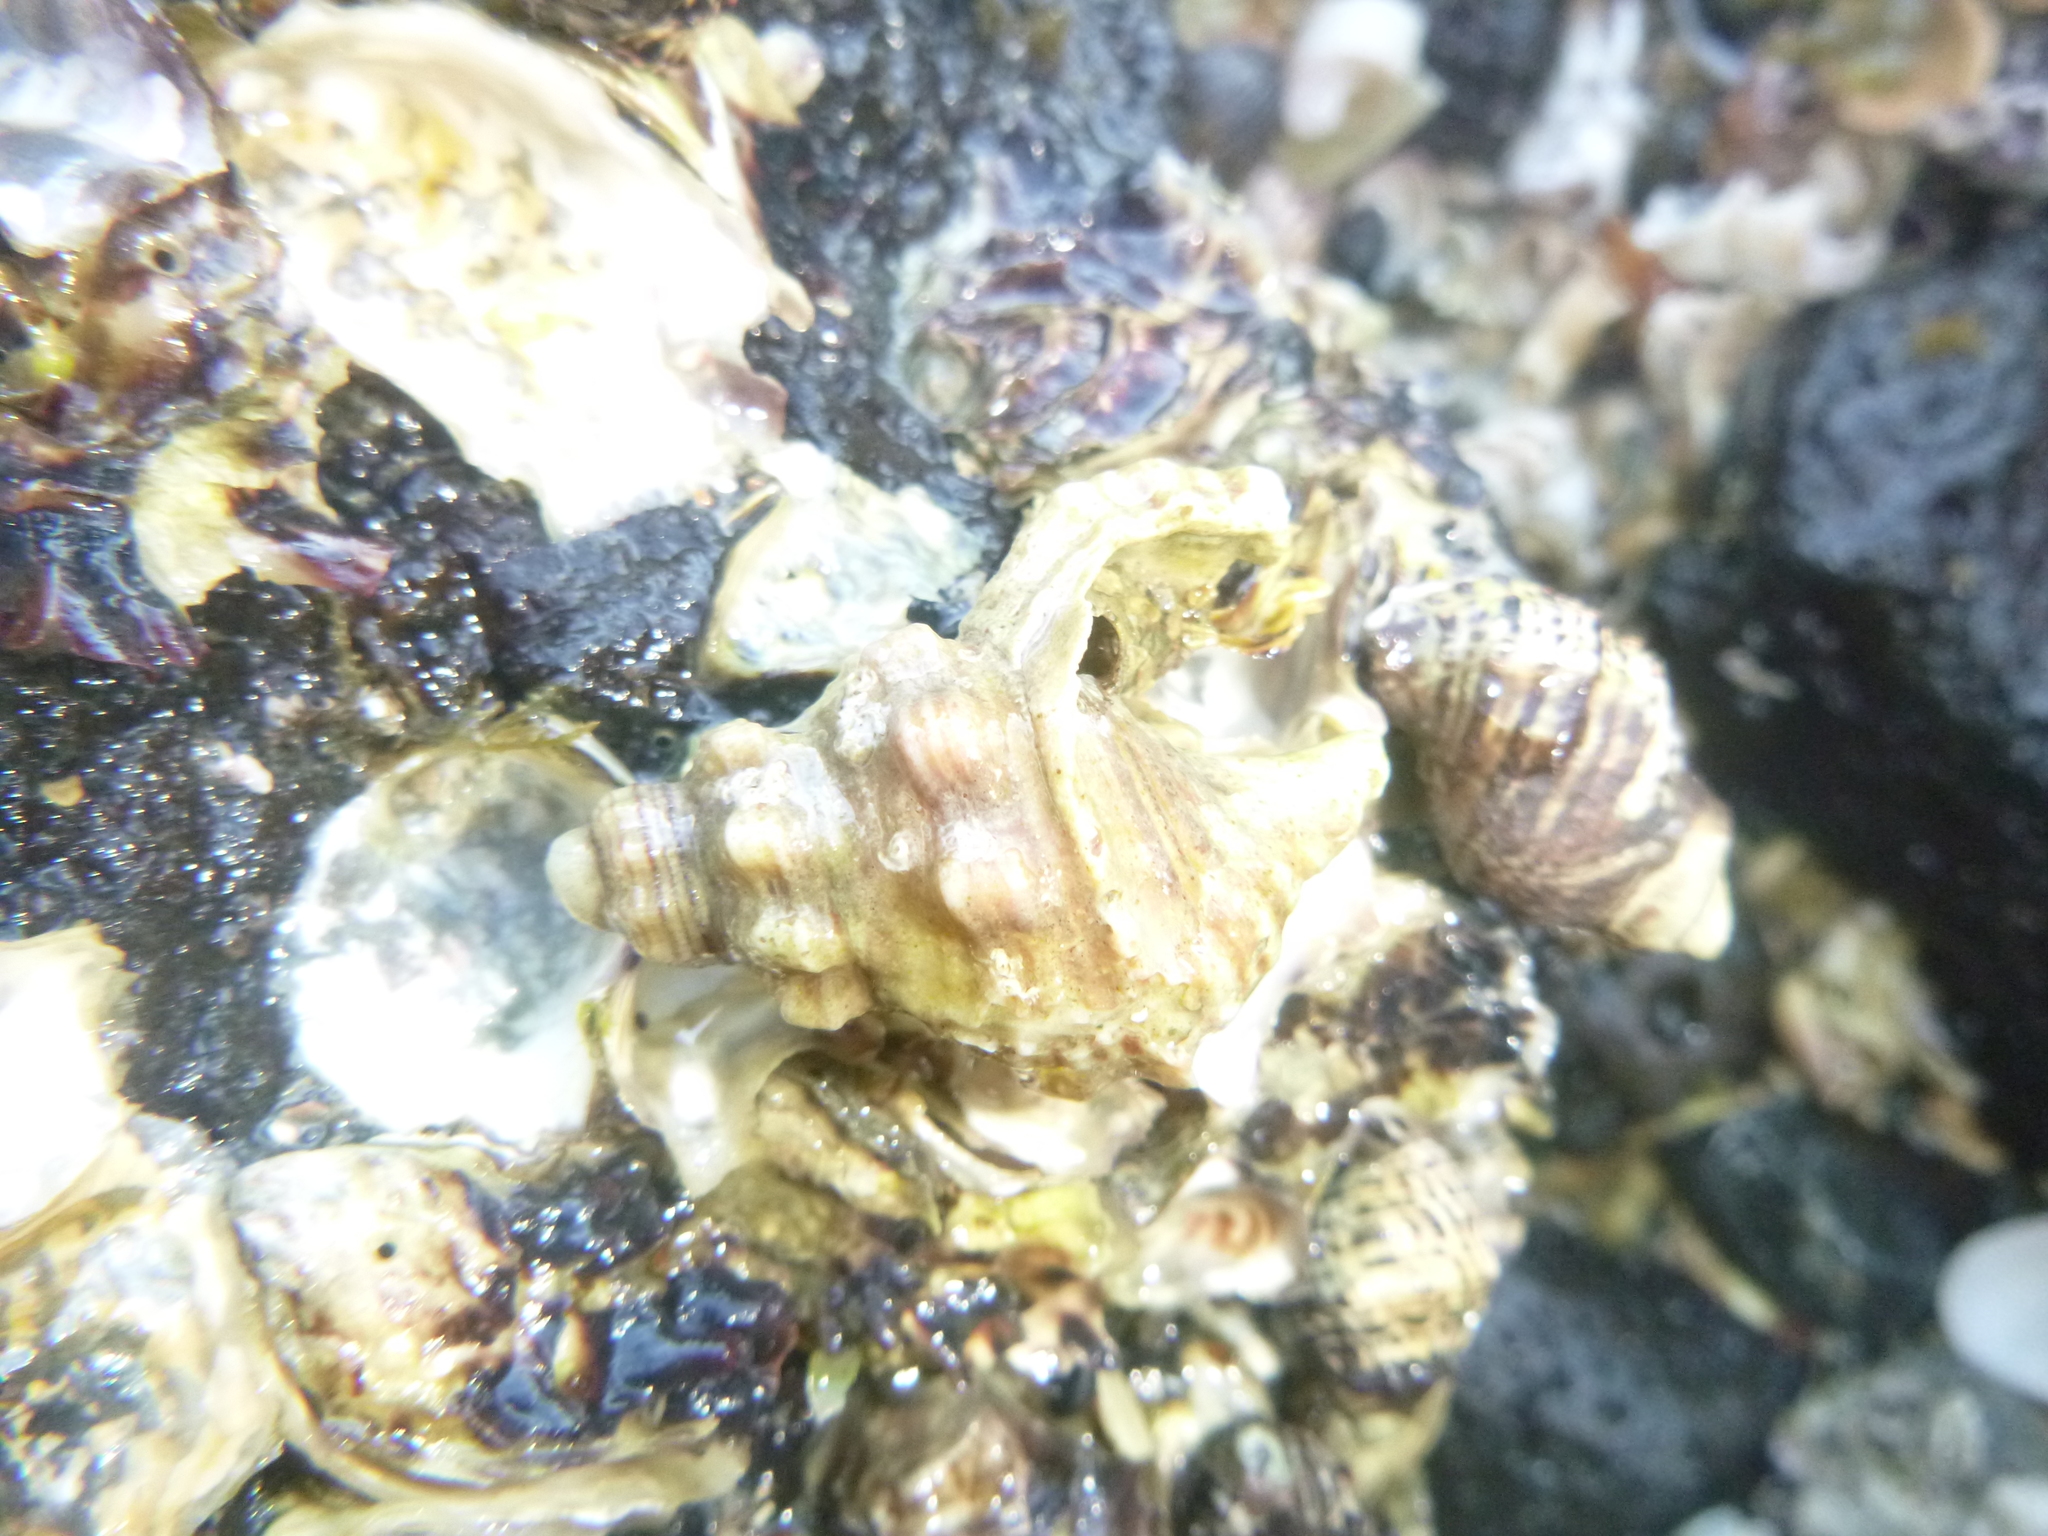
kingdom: Animalia
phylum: Mollusca
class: Gastropoda
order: Littorinimorpha
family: Cymatiidae
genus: Cabestana
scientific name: Cabestana spengleri
